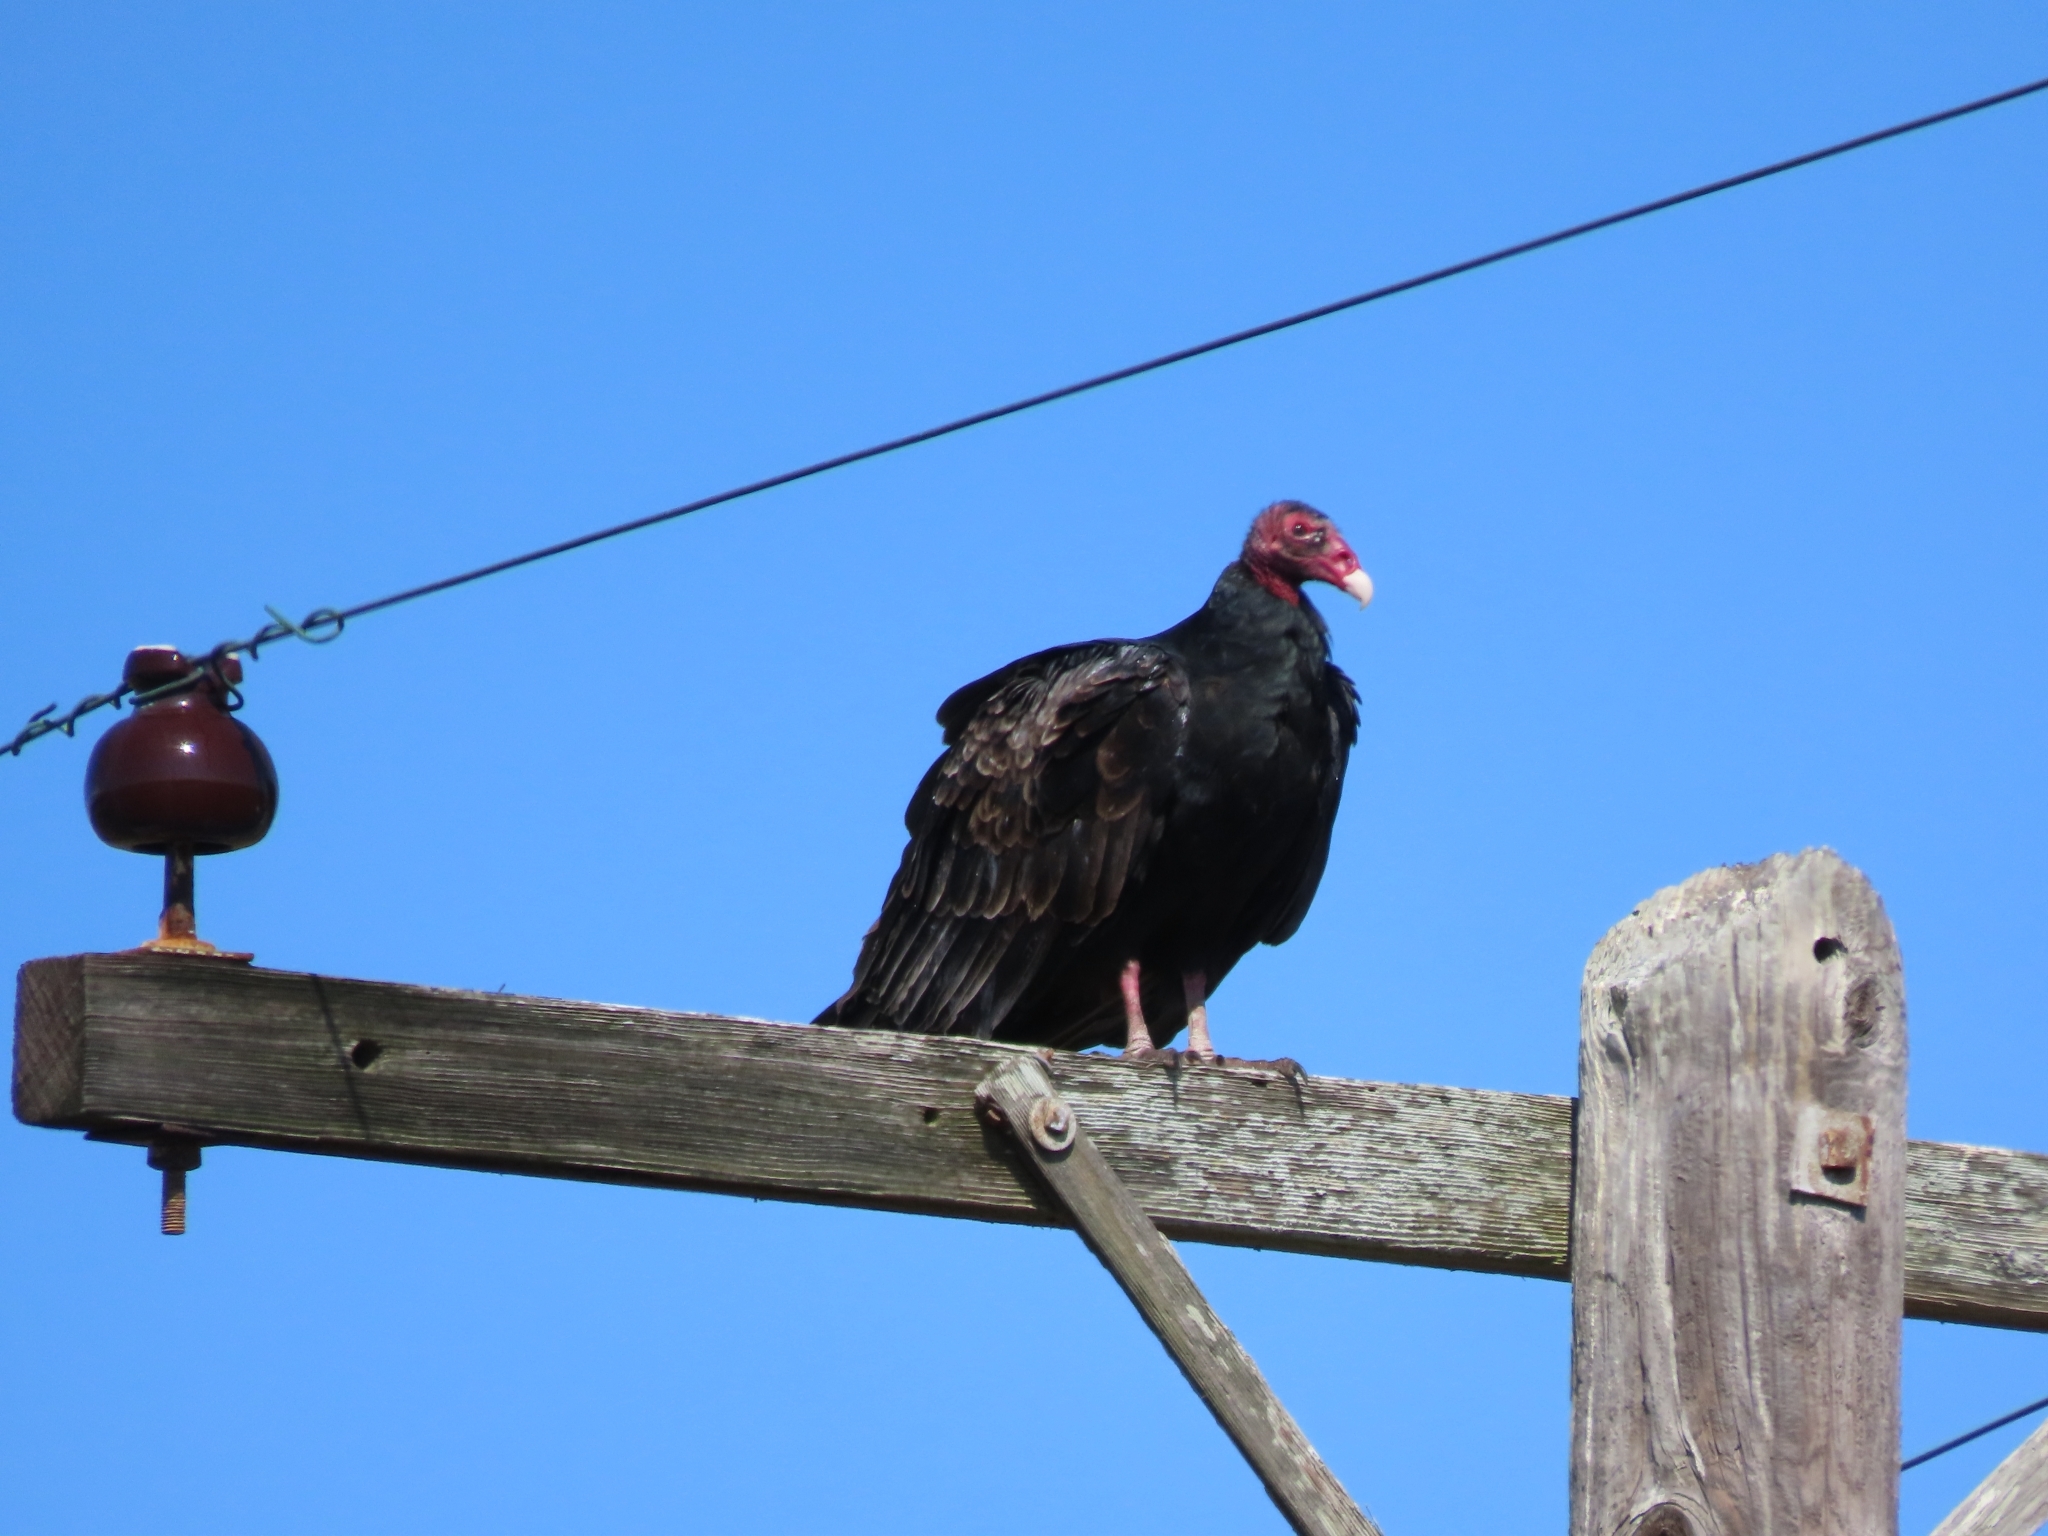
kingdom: Animalia
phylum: Chordata
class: Aves
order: Accipitriformes
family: Cathartidae
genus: Cathartes
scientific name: Cathartes aura
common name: Turkey vulture
